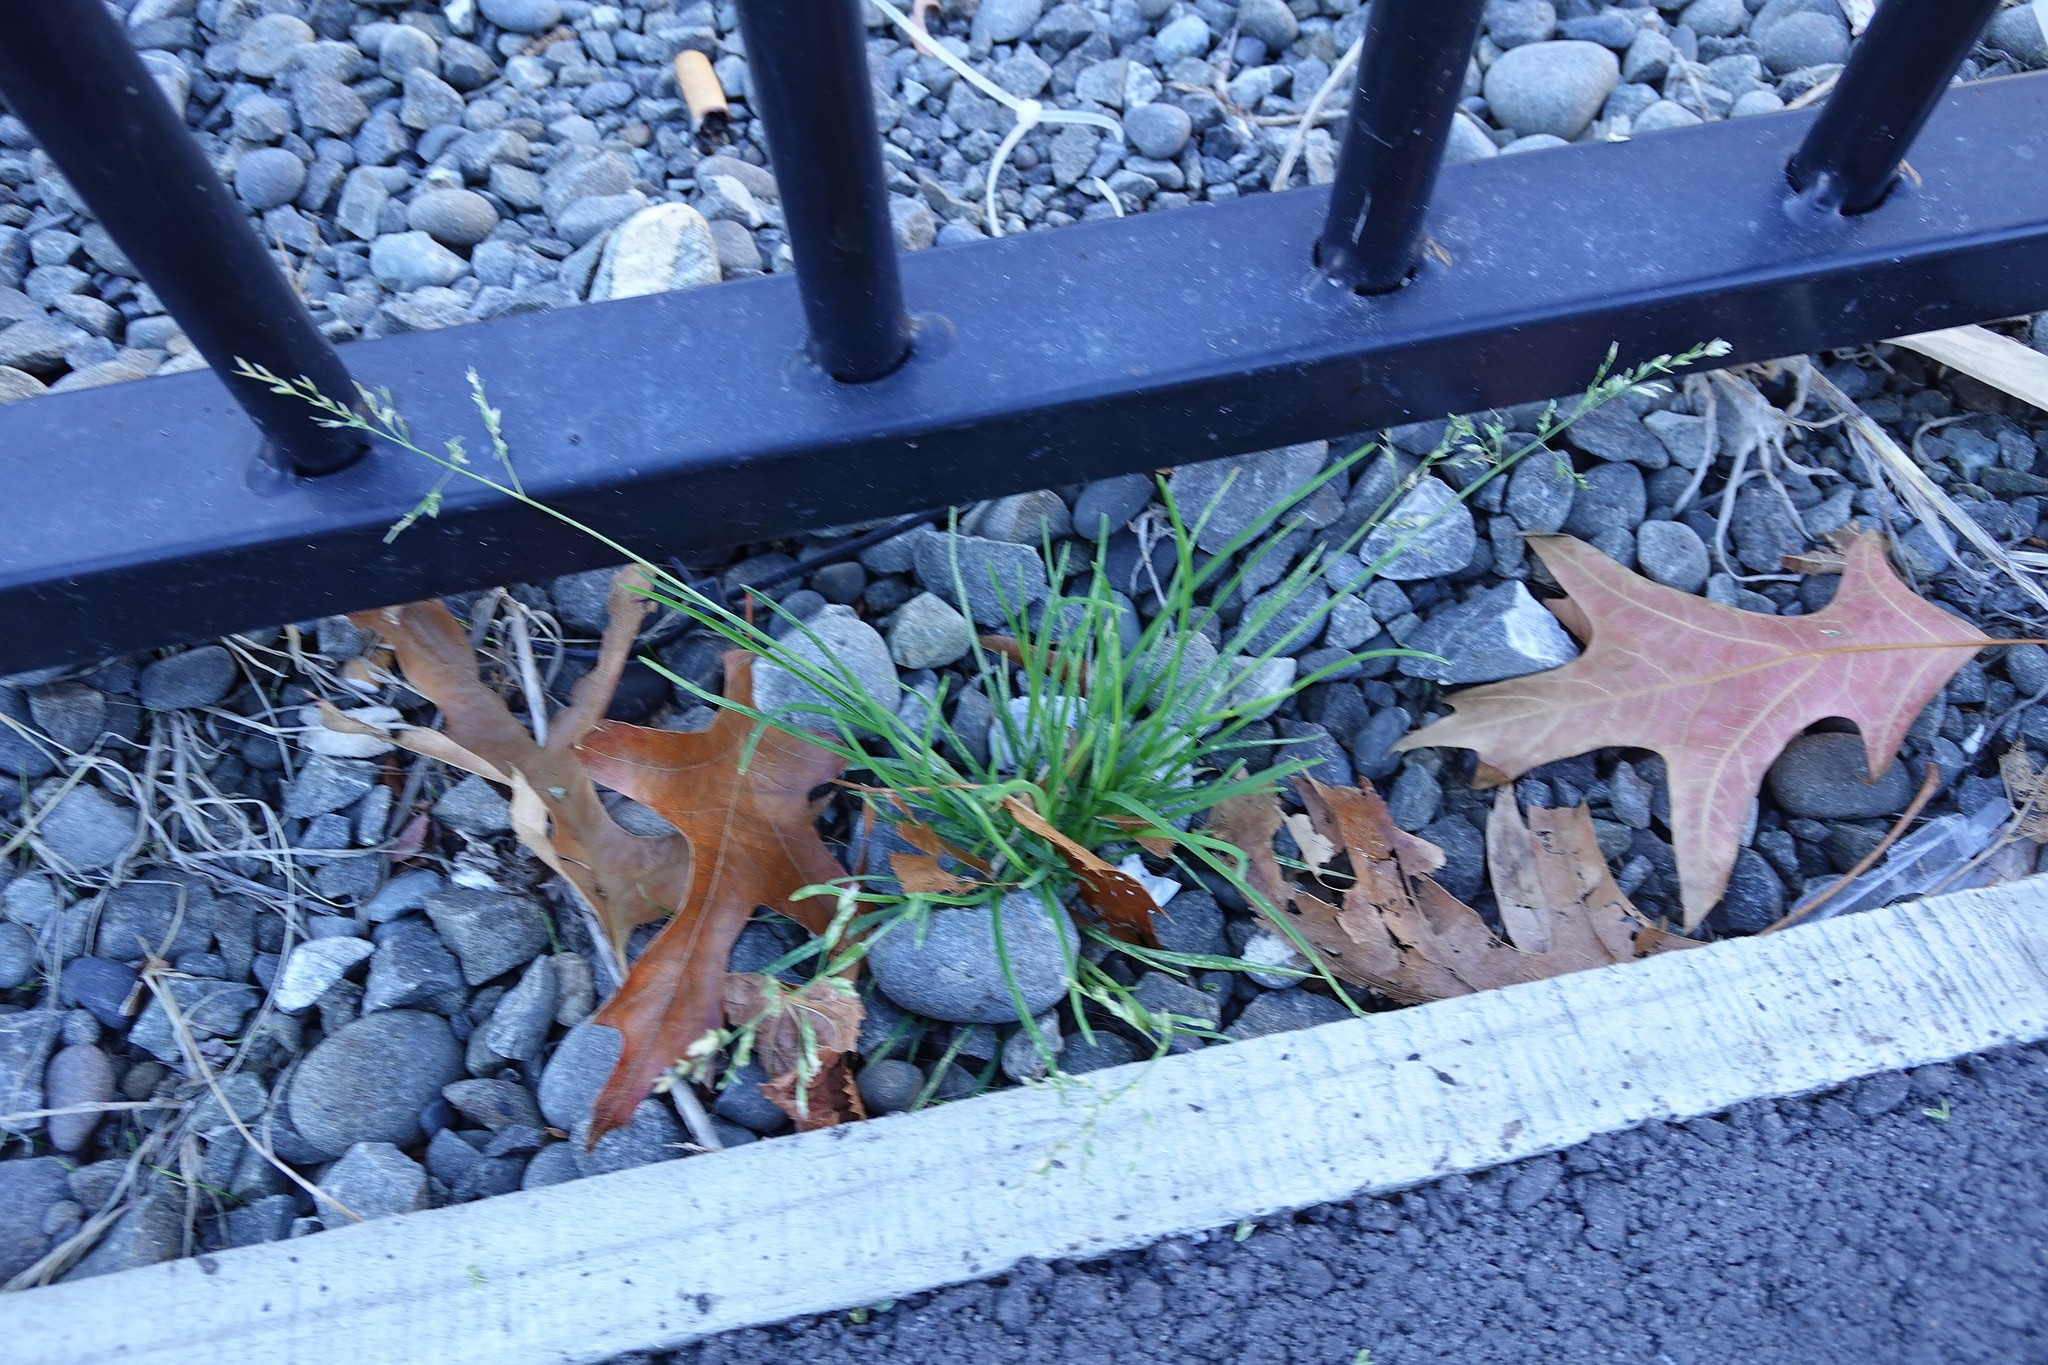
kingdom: Plantae
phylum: Tracheophyta
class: Liliopsida
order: Poales
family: Poaceae
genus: Poa
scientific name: Poa annua
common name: Annual bluegrass
